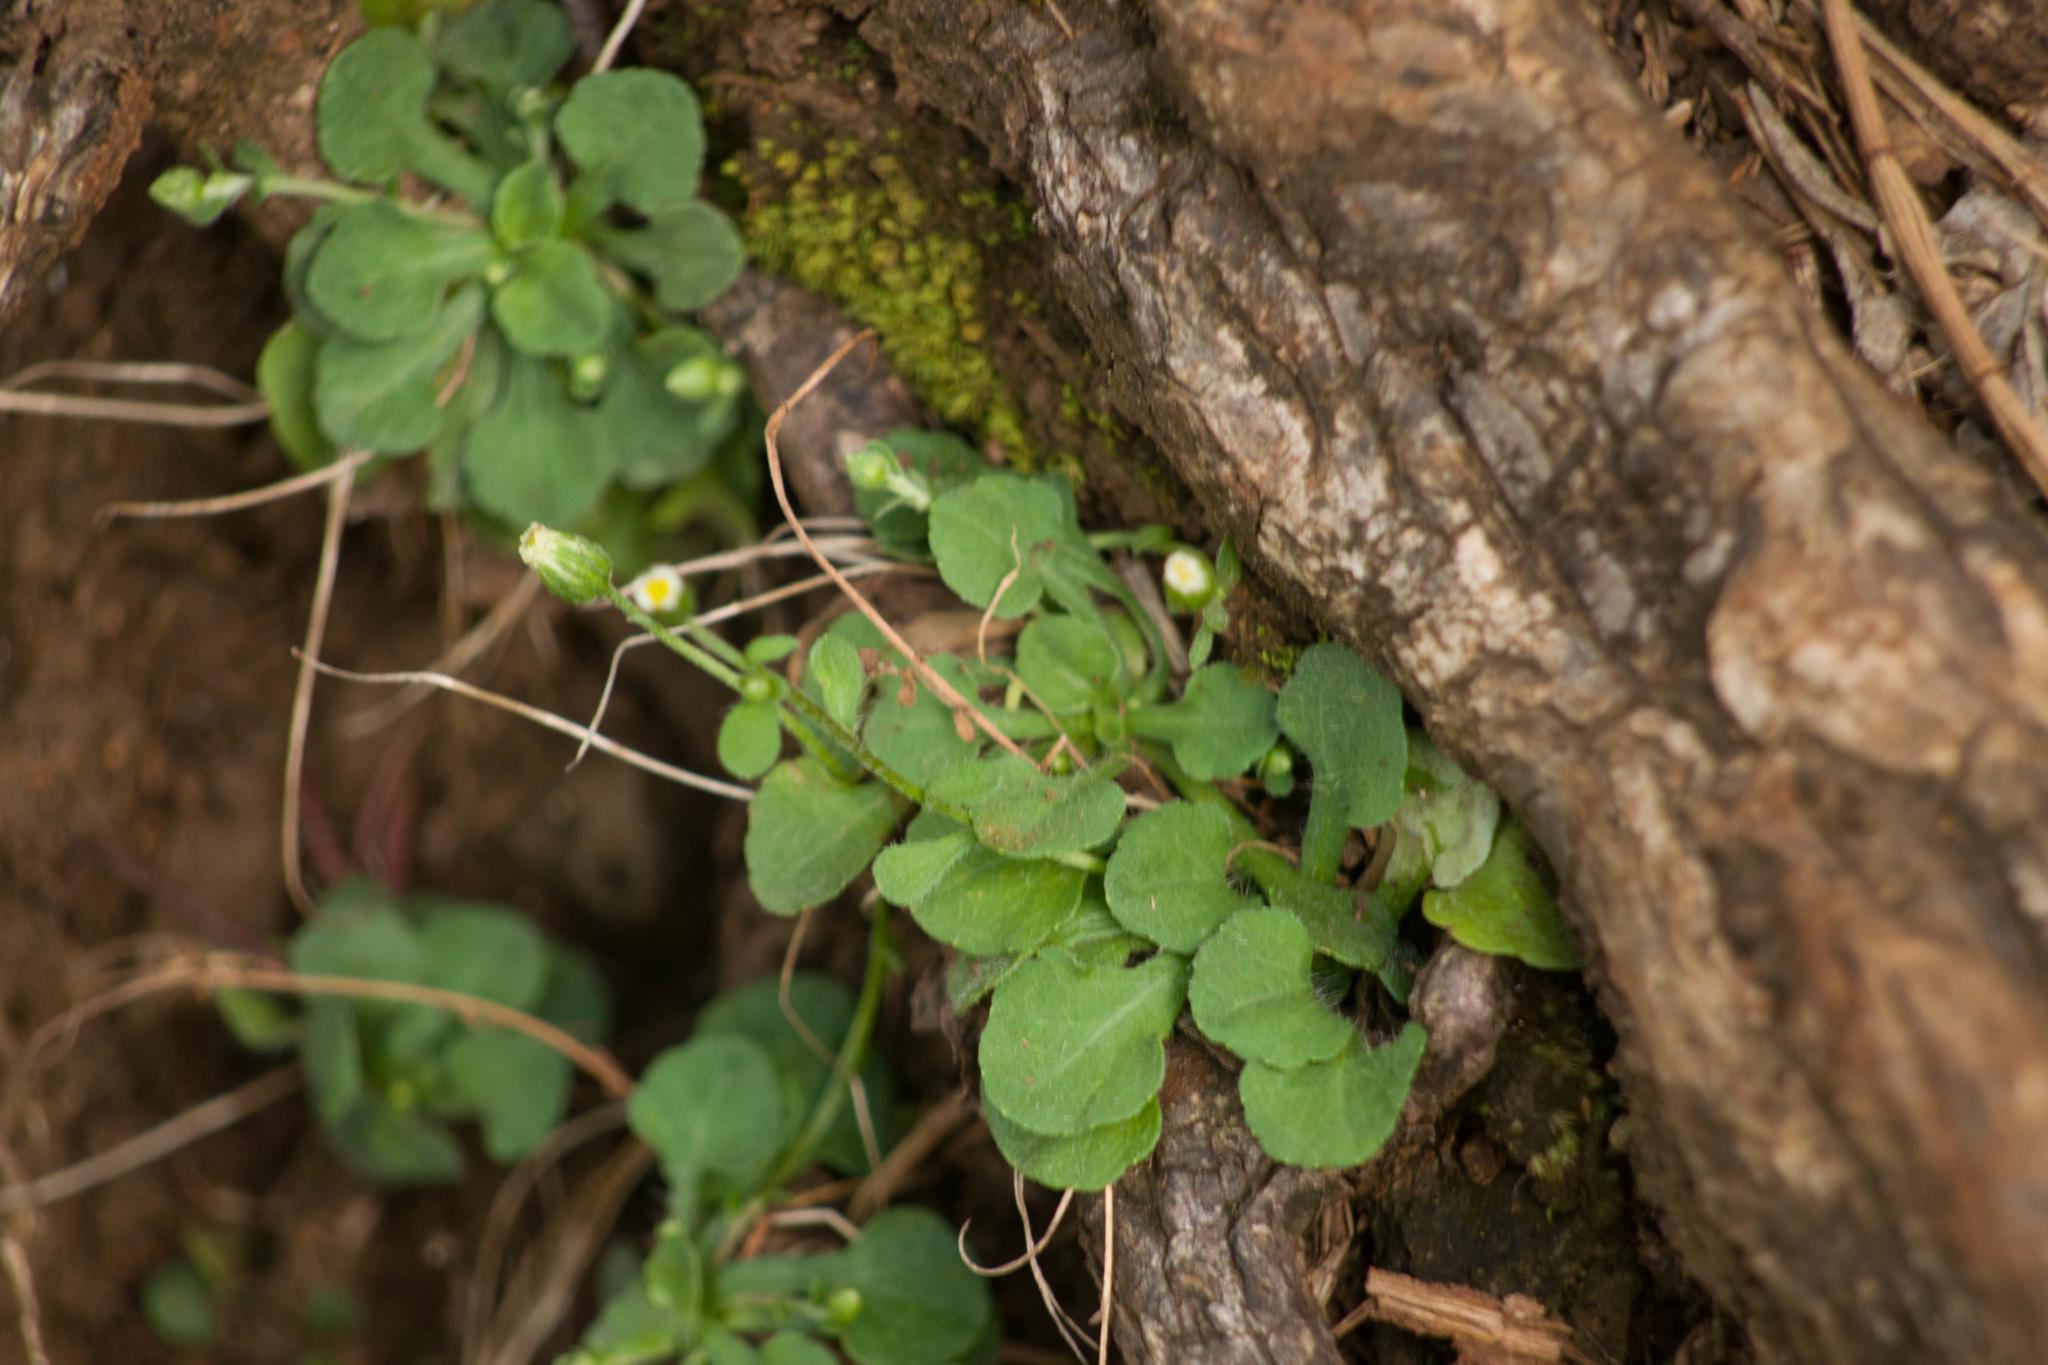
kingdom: Plantae
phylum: Tracheophyta
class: Magnoliopsida
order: Asterales
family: Asteraceae
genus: Erigeron
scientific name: Erigeron bellioides
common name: Bellorita
